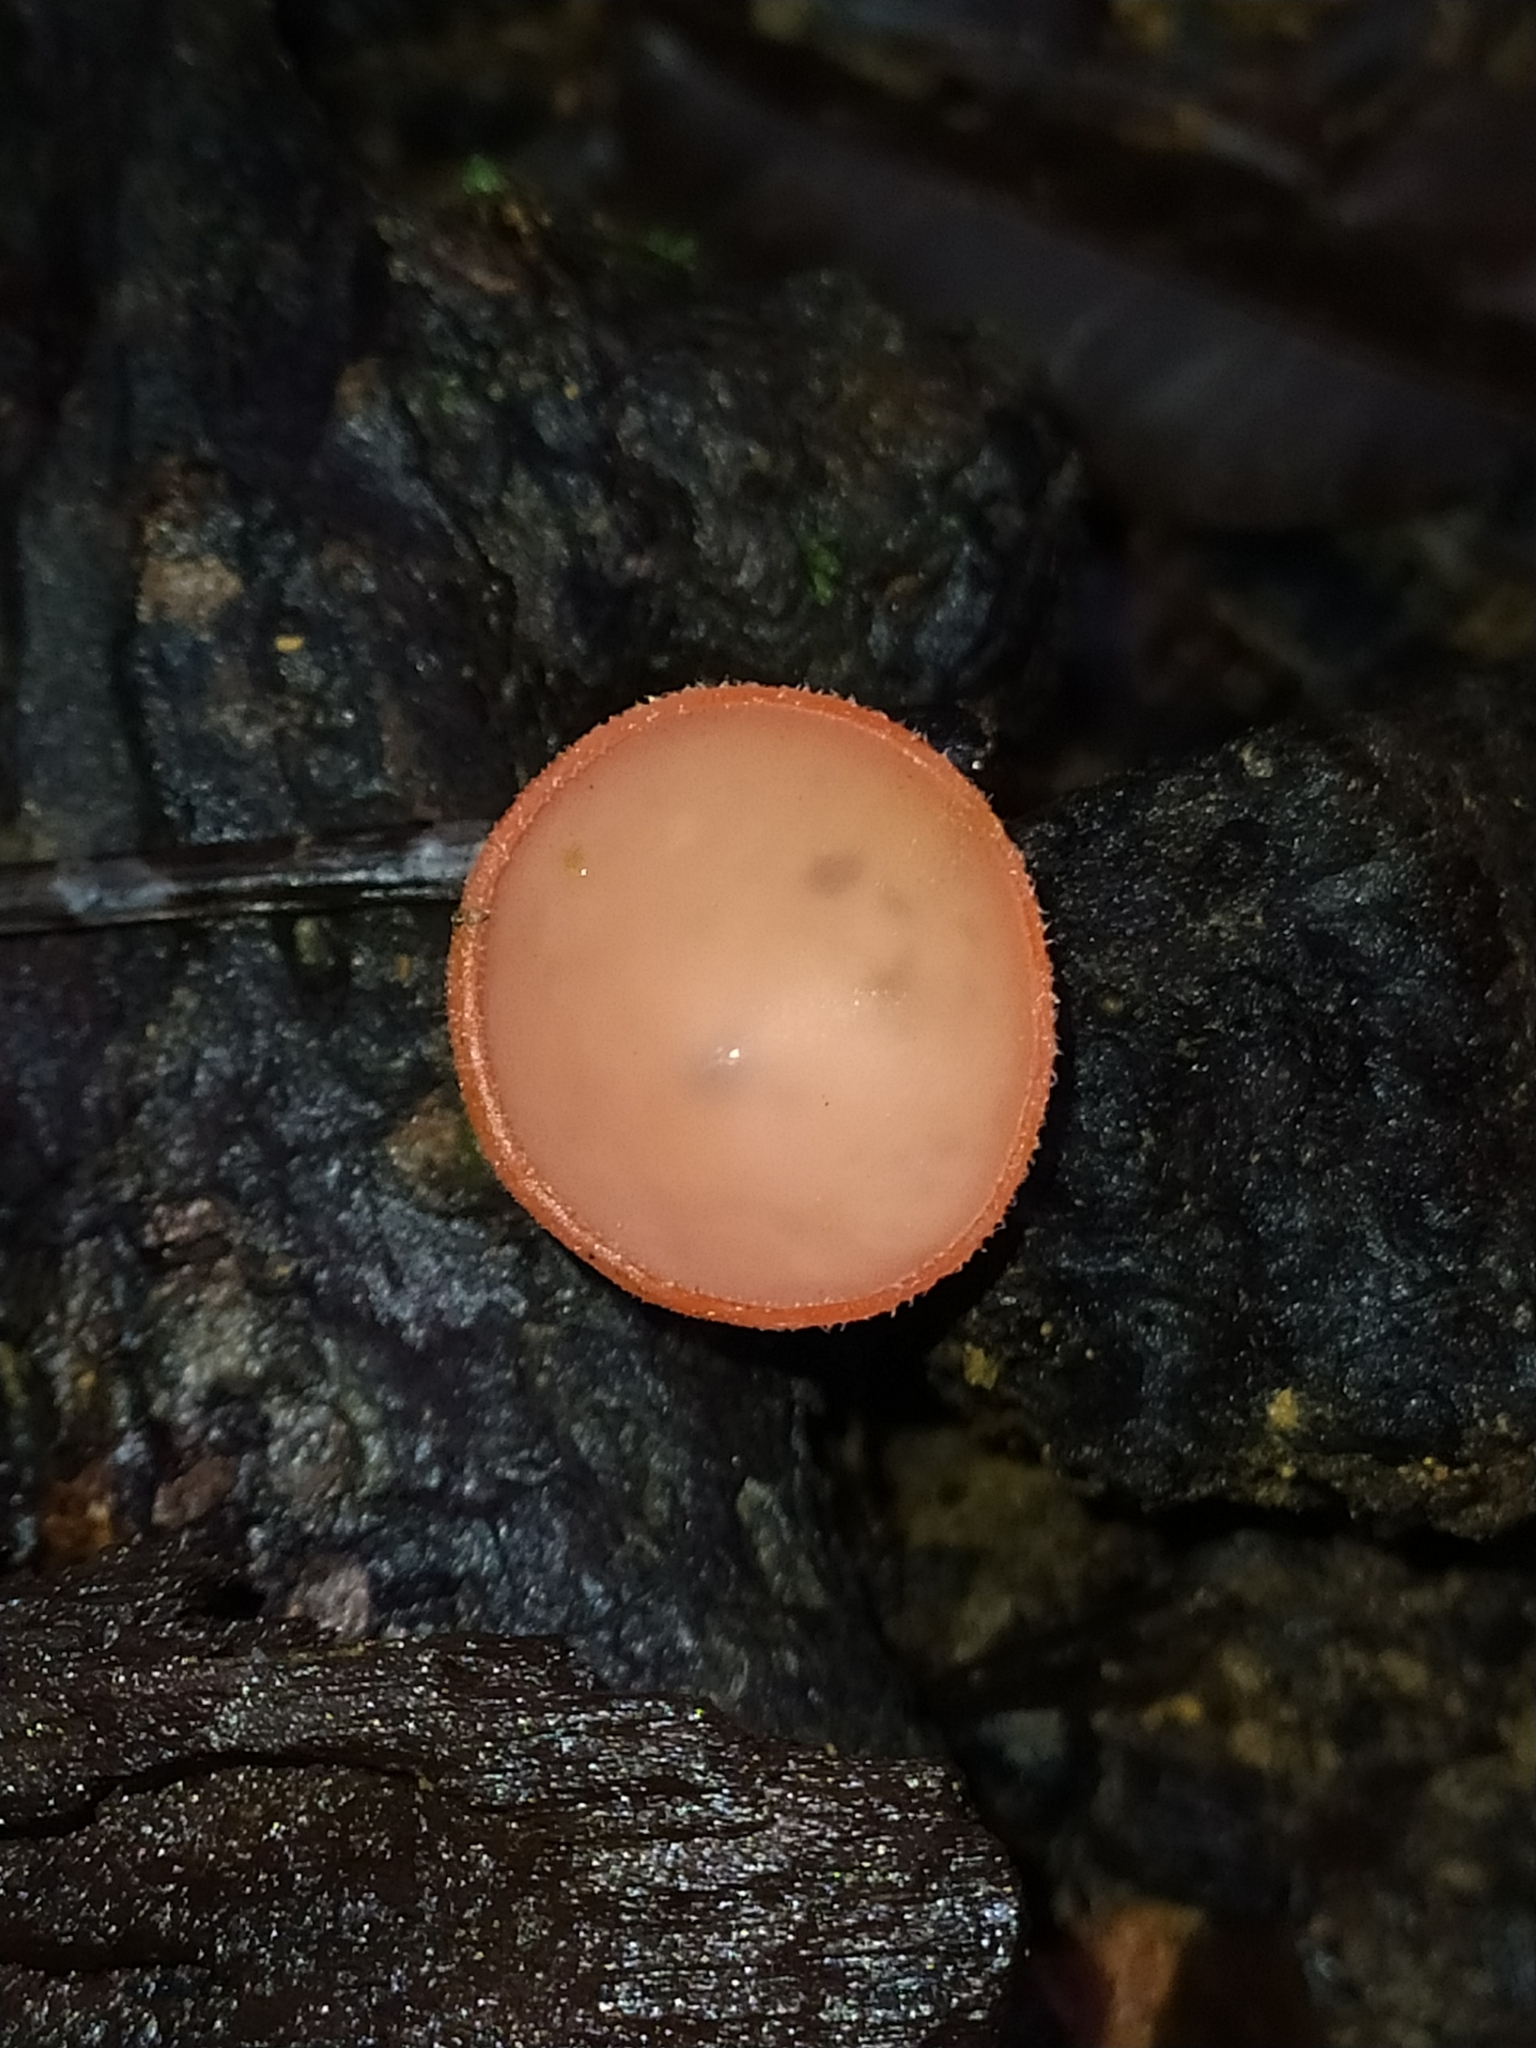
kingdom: Fungi
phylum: Ascomycota
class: Pezizomycetes
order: Pezizales
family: Sarcoscyphaceae
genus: Cookeina
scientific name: Cookeina speciosa
